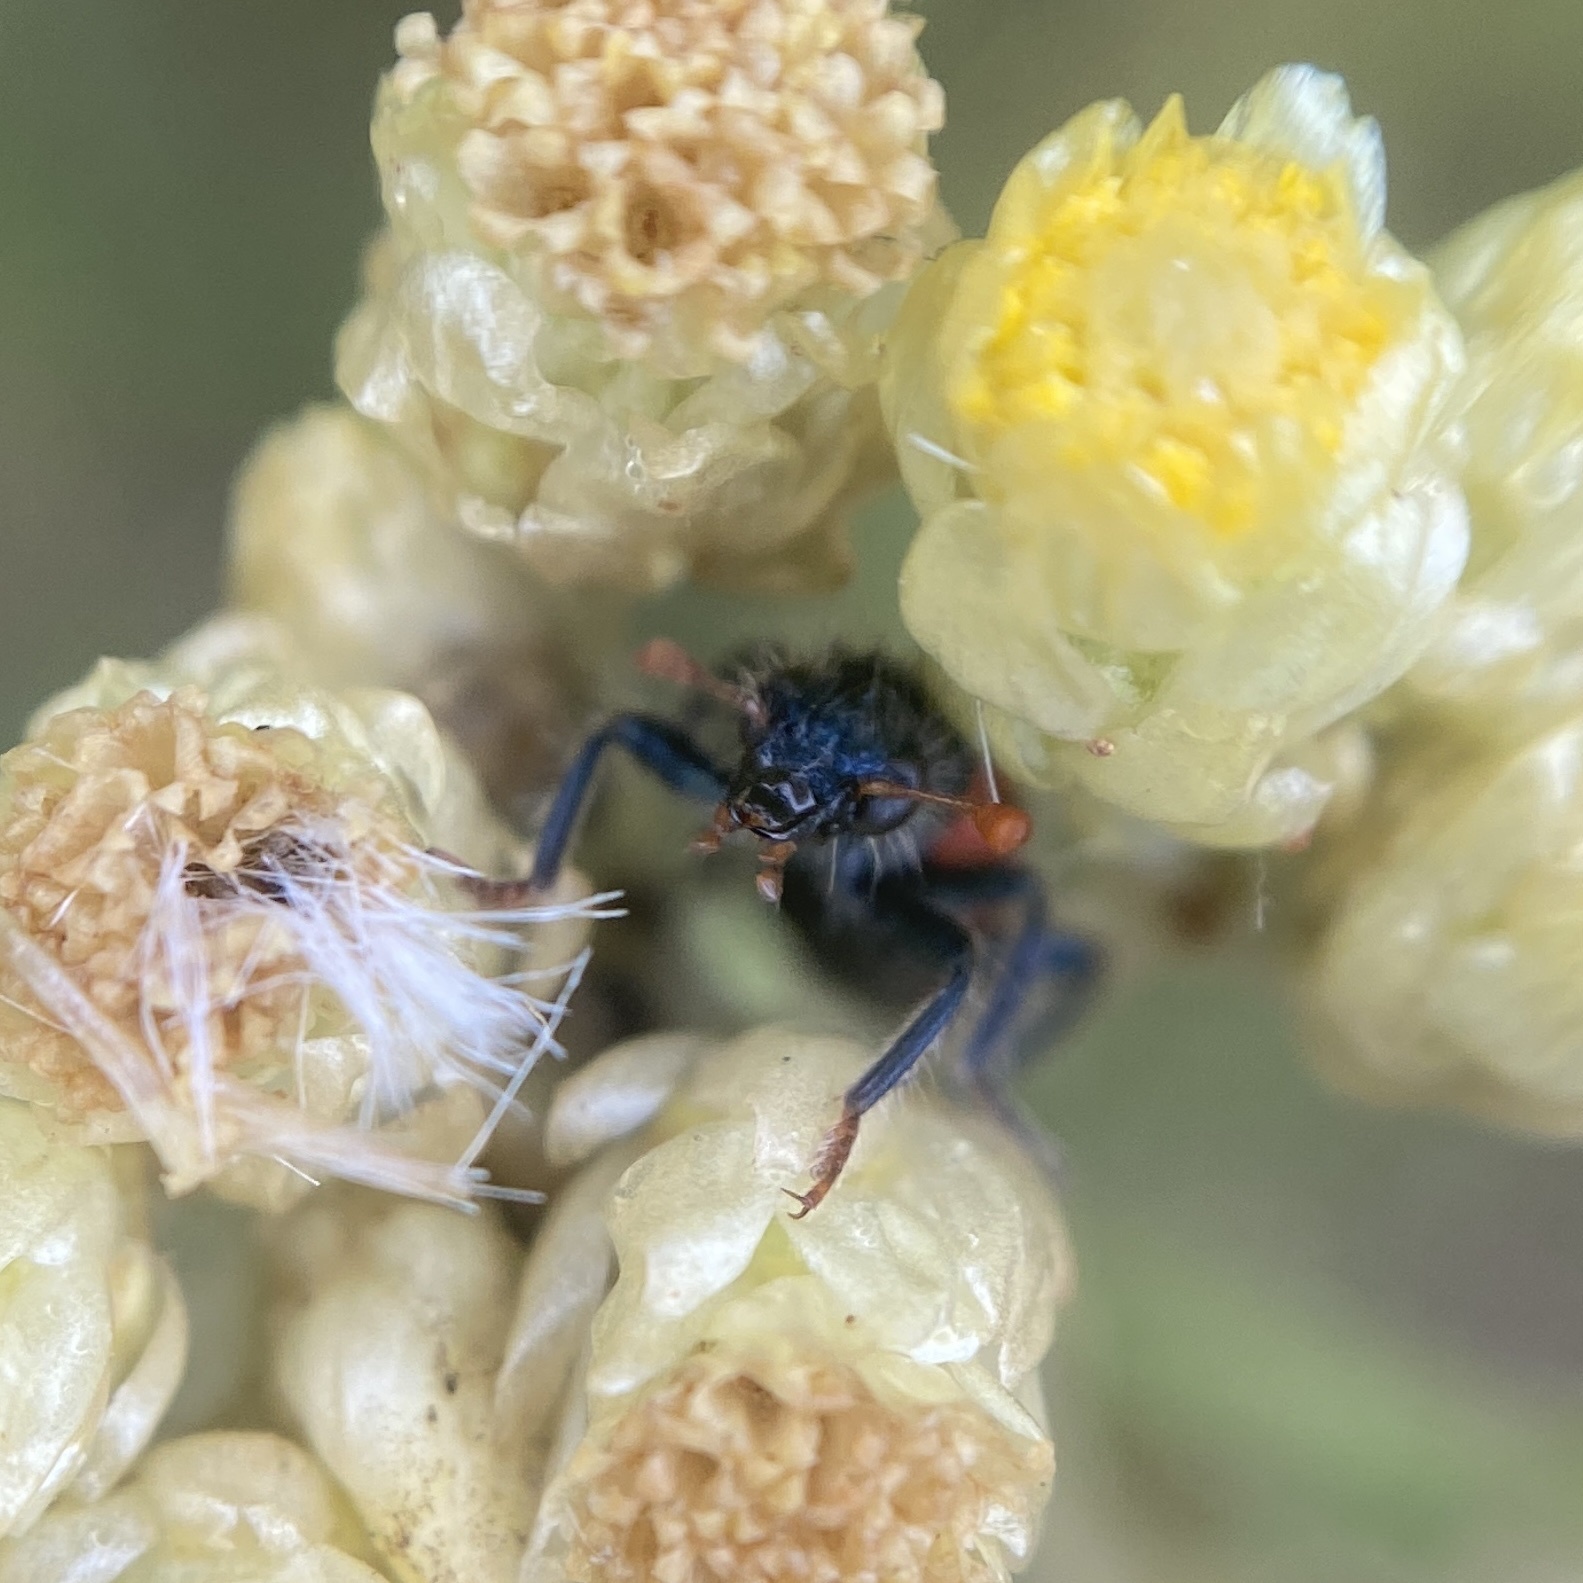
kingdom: Animalia
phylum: Arthropoda
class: Insecta
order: Coleoptera
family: Cleridae
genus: Trichodes
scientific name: Trichodes leucopsideus
